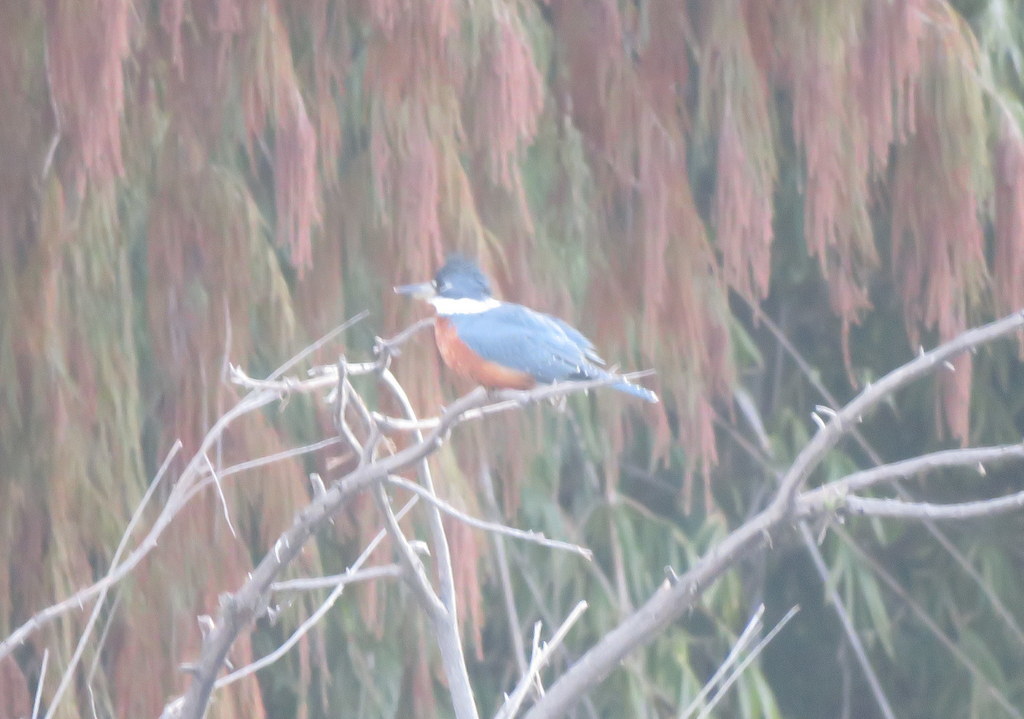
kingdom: Animalia
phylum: Chordata
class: Aves
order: Coraciiformes
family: Alcedinidae
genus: Megaceryle
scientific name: Megaceryle torquata
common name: Ringed kingfisher
